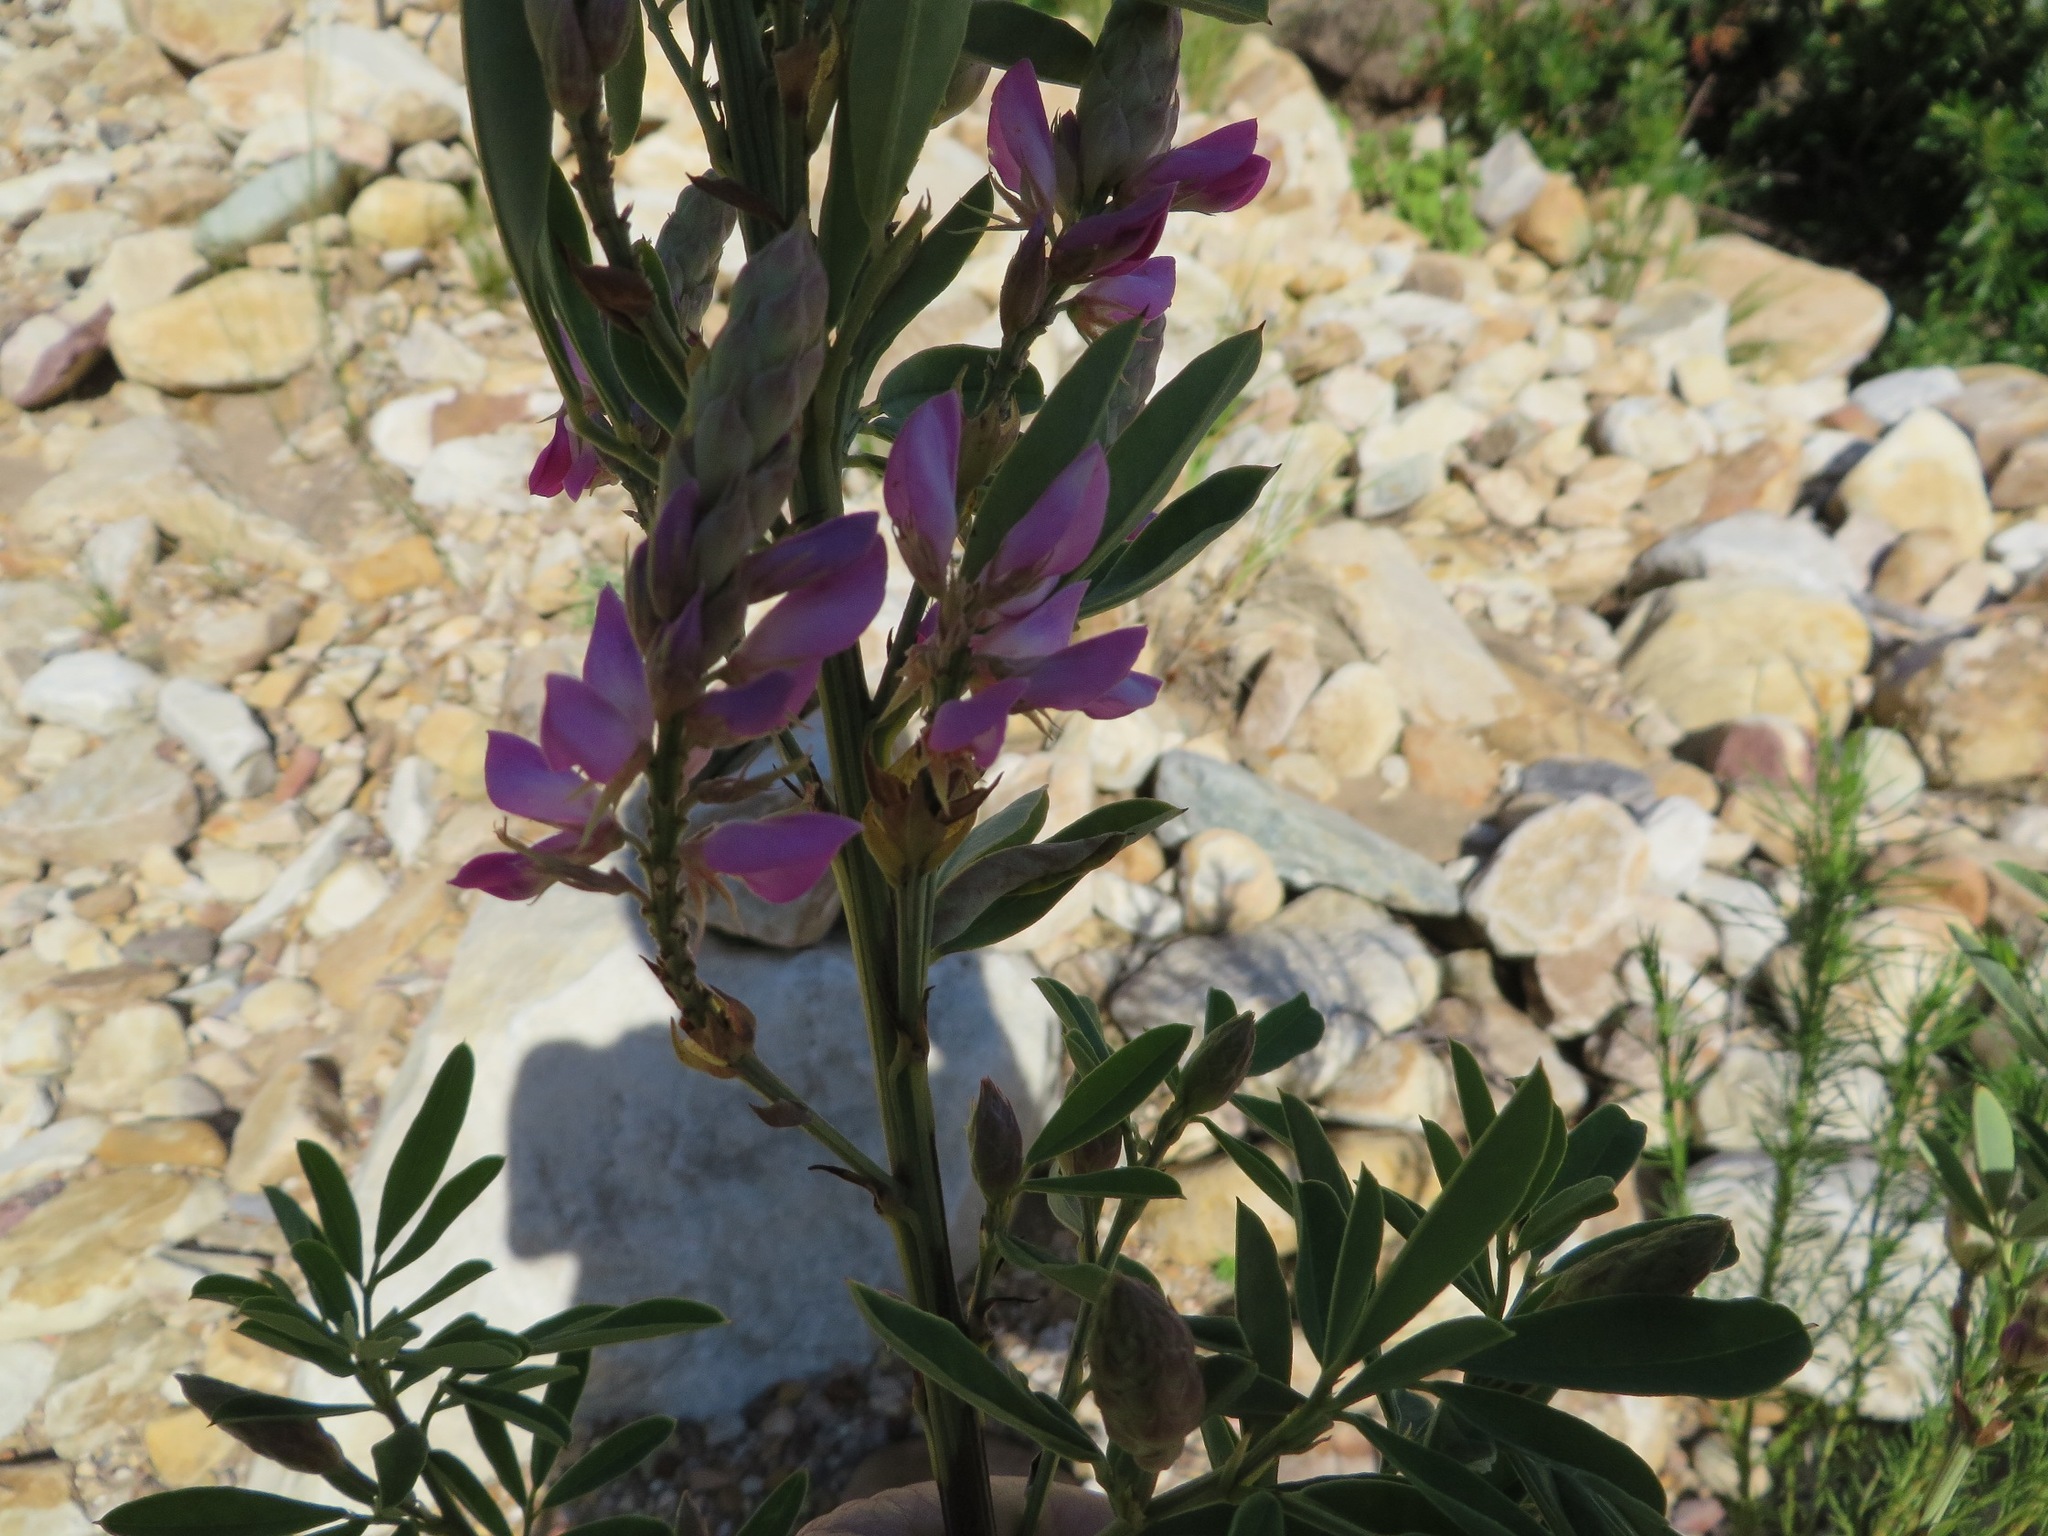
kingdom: Plantae
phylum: Tracheophyta
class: Magnoliopsida
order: Fabales
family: Fabaceae
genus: Indigofera
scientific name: Indigofera cytisoides
